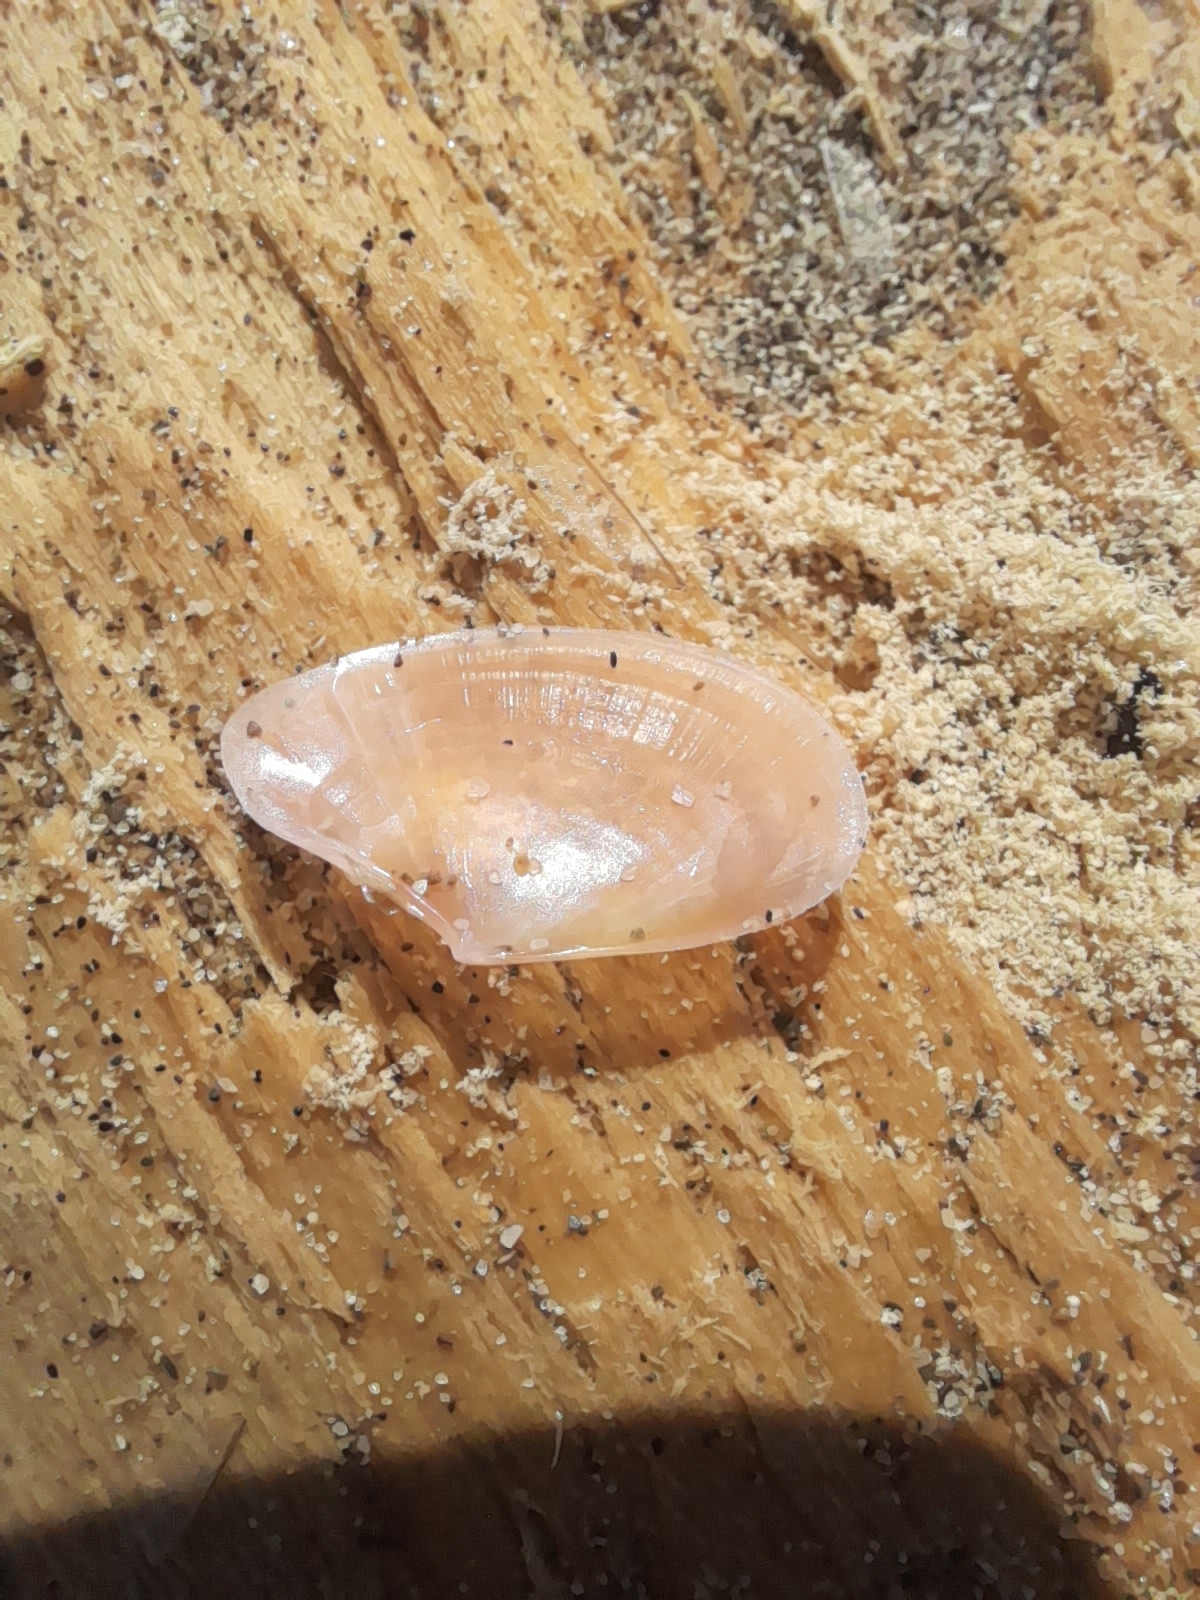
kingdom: Animalia
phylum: Mollusca
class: Bivalvia
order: Cardiida
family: Tellinidae
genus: Bosemprella
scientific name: Bosemprella incarnata
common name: Red tellin
